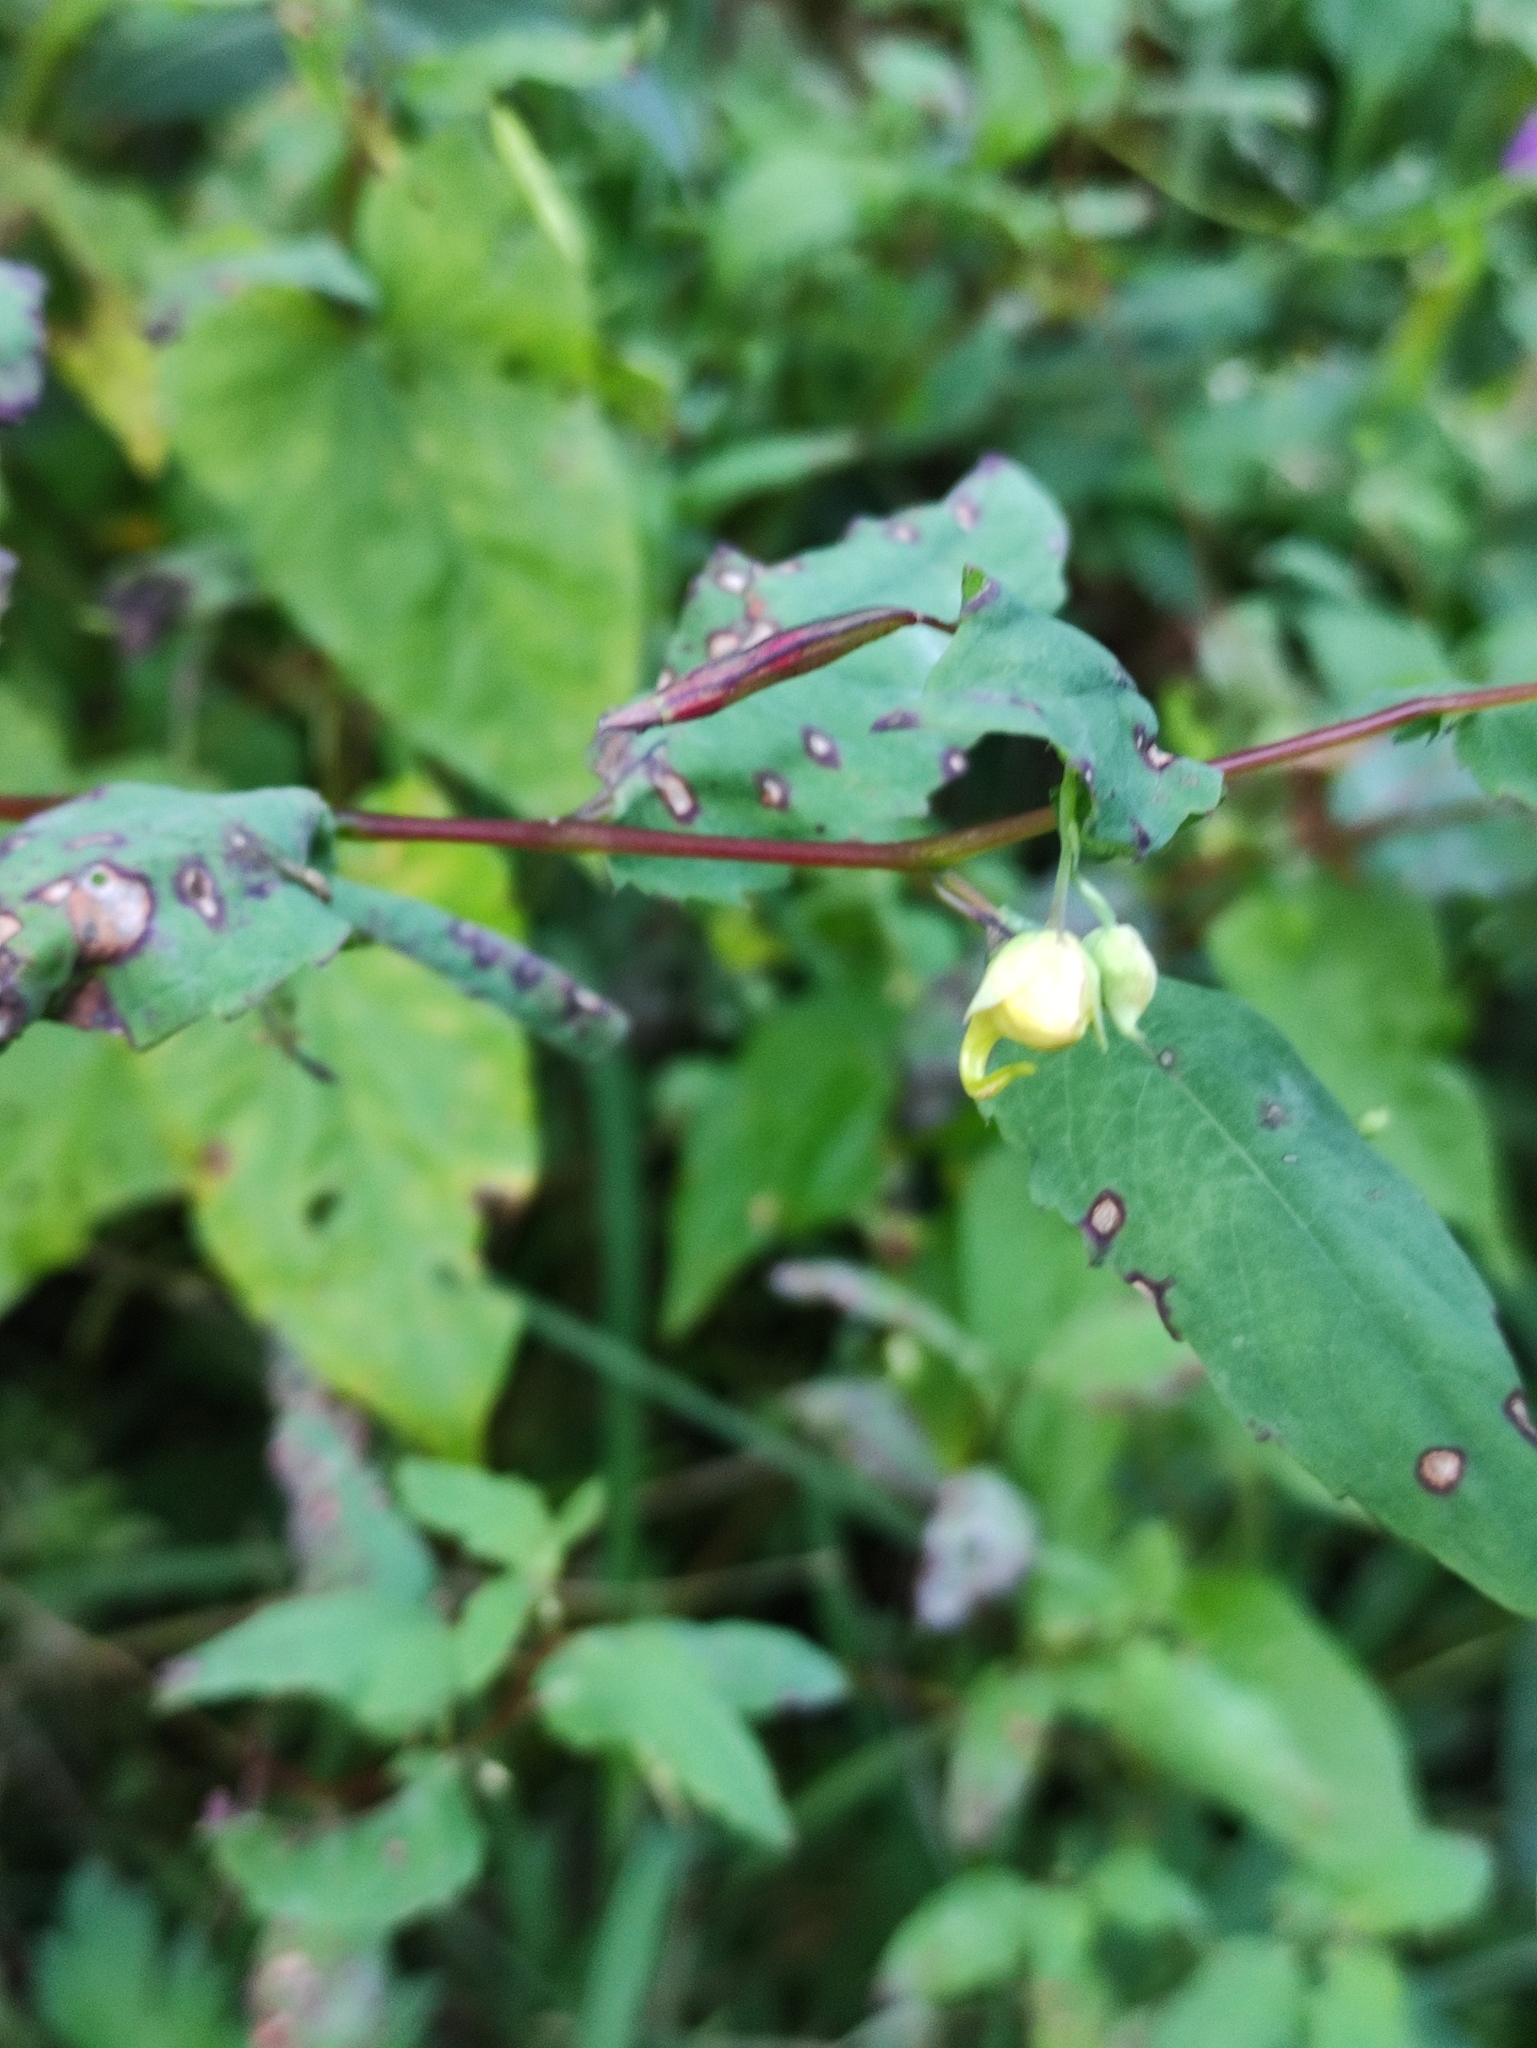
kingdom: Plantae
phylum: Tracheophyta
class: Magnoliopsida
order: Ericales
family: Balsaminaceae
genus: Impatiens
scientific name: Impatiens noli-tangere
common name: Touch-me-not balsam
